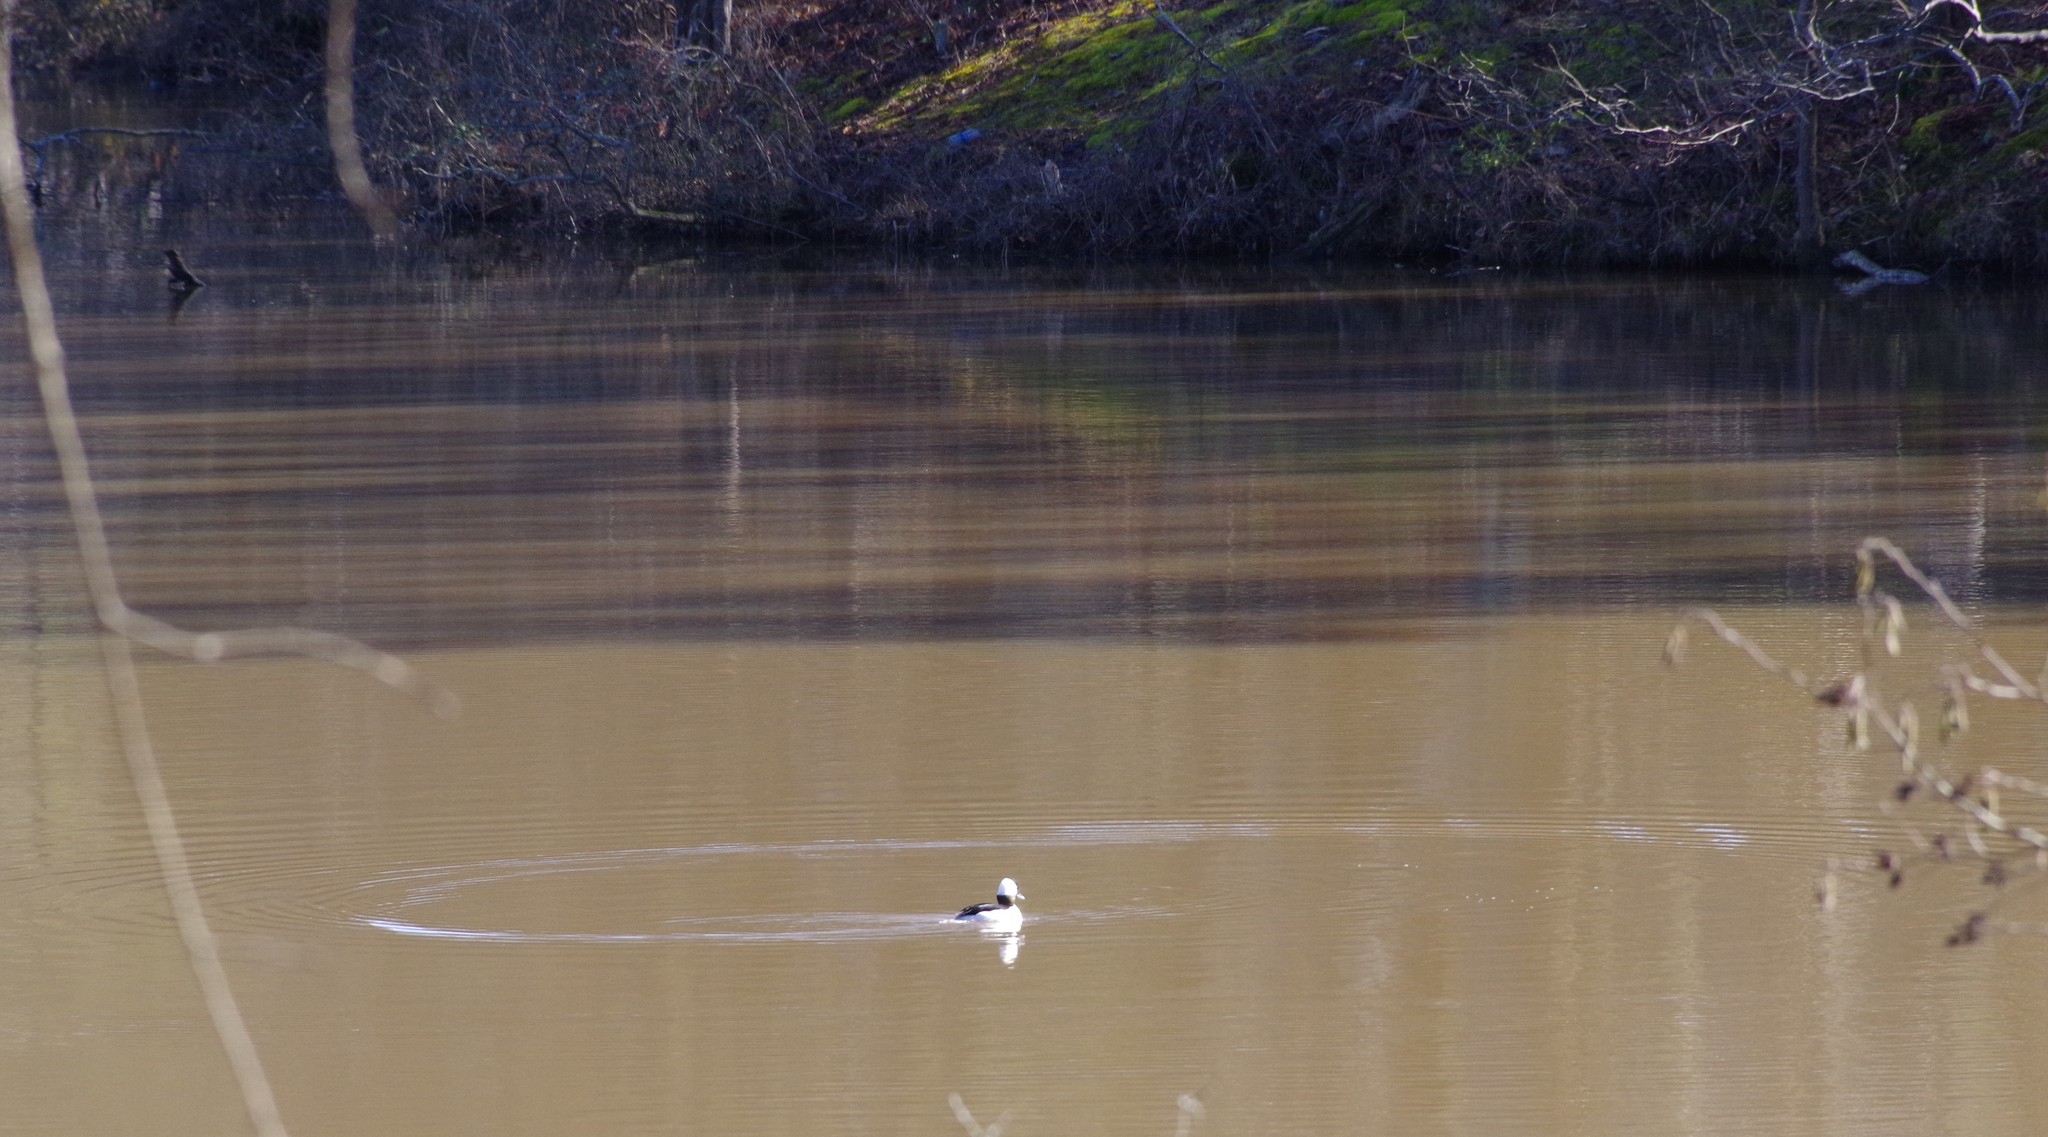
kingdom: Animalia
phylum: Chordata
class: Aves
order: Anseriformes
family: Anatidae
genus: Bucephala
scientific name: Bucephala albeola
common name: Bufflehead
